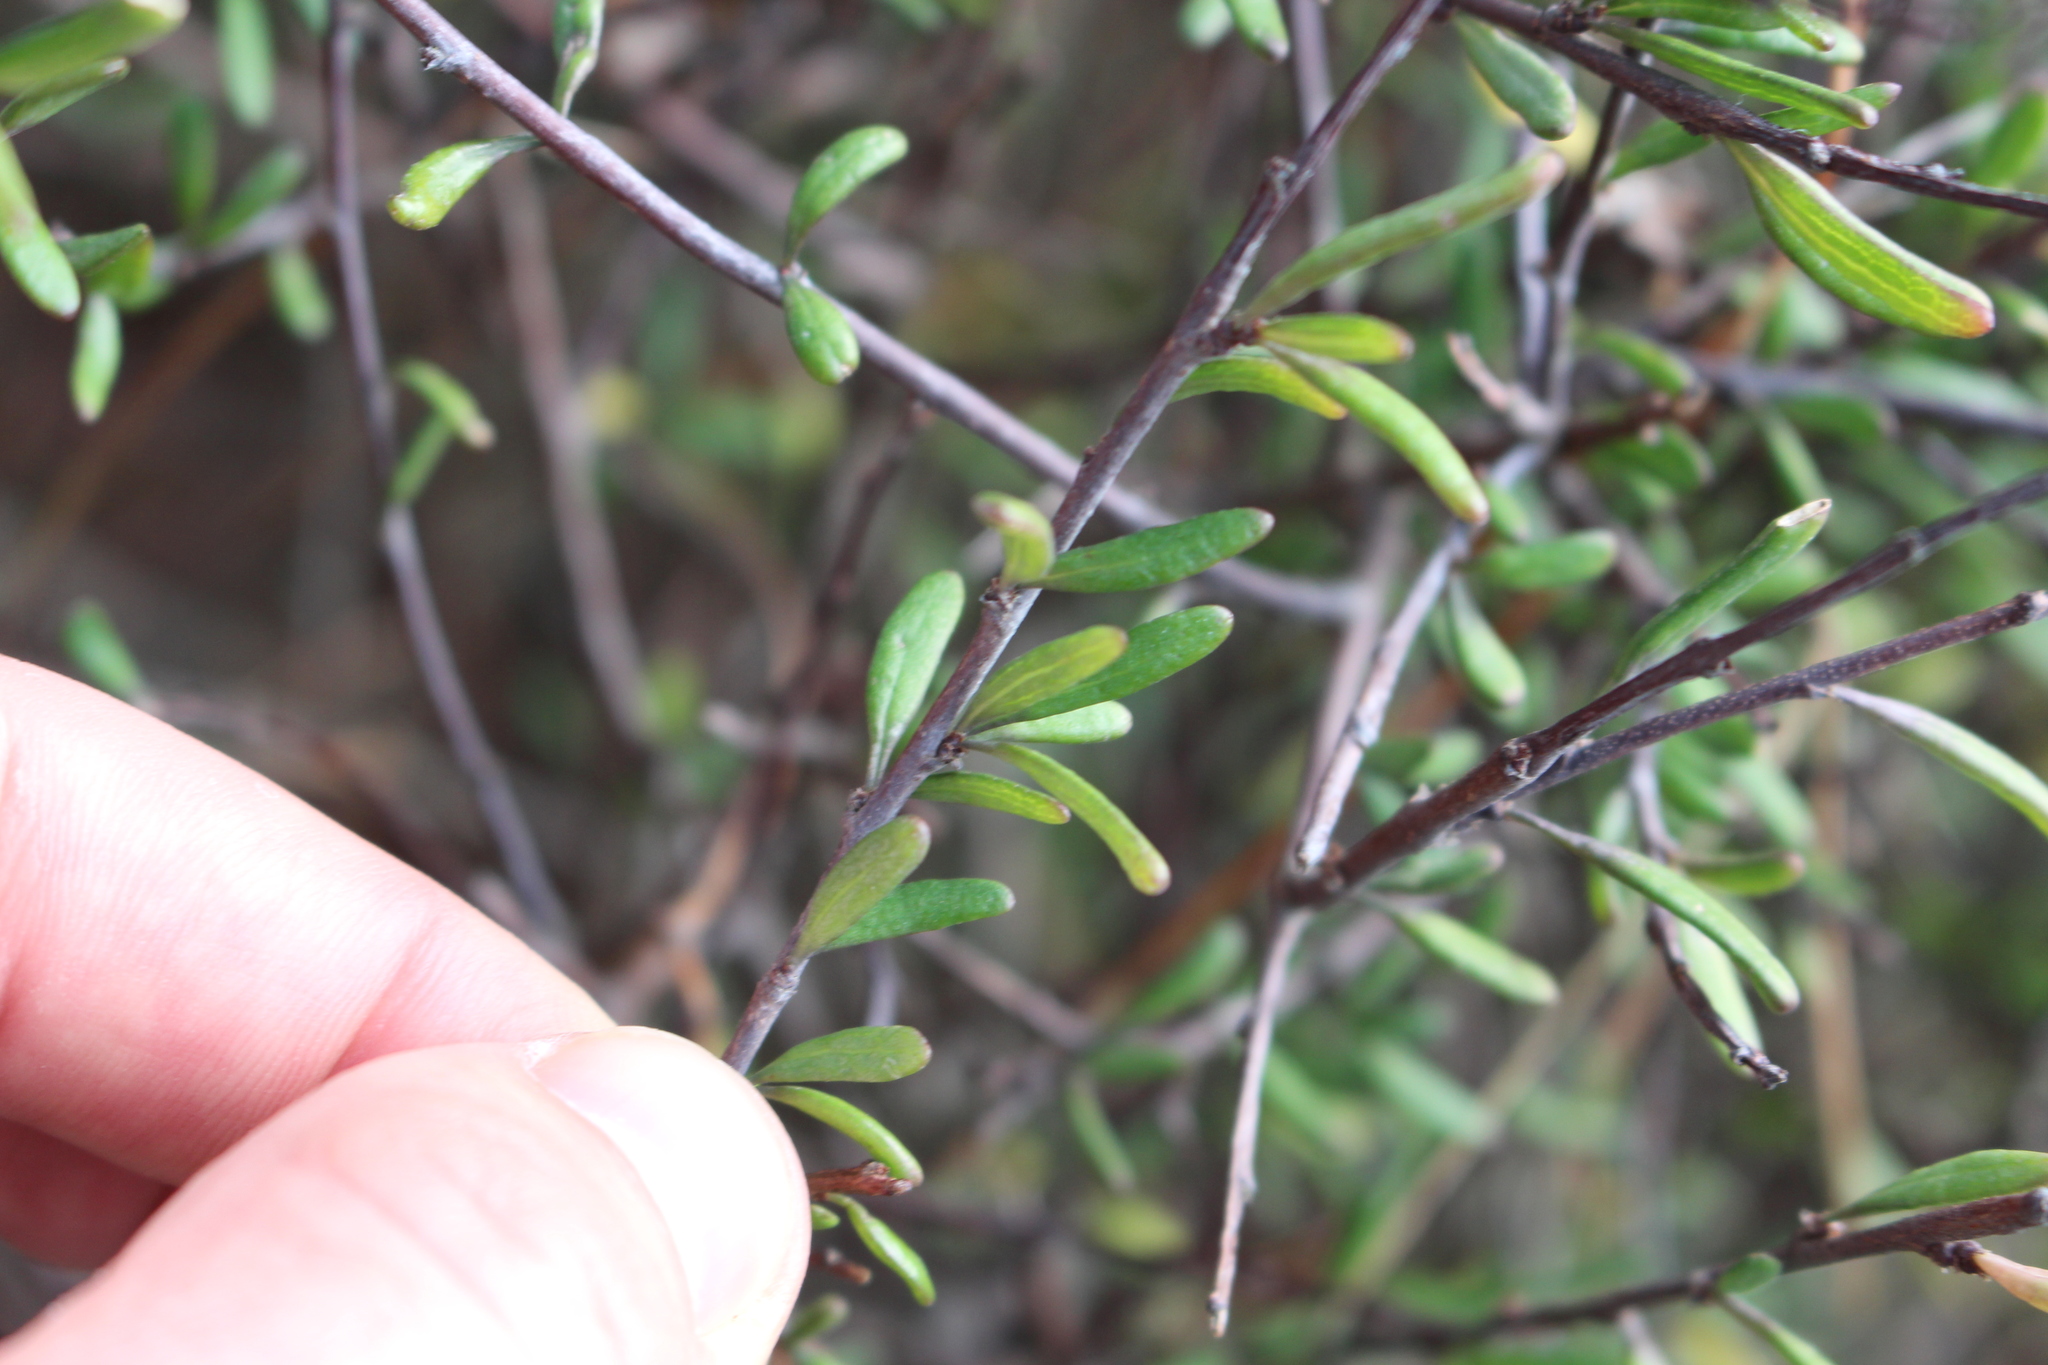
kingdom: Plantae
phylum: Tracheophyta
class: Magnoliopsida
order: Malvales
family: Malvaceae
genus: Plagianthus
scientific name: Plagianthus divaricatus
